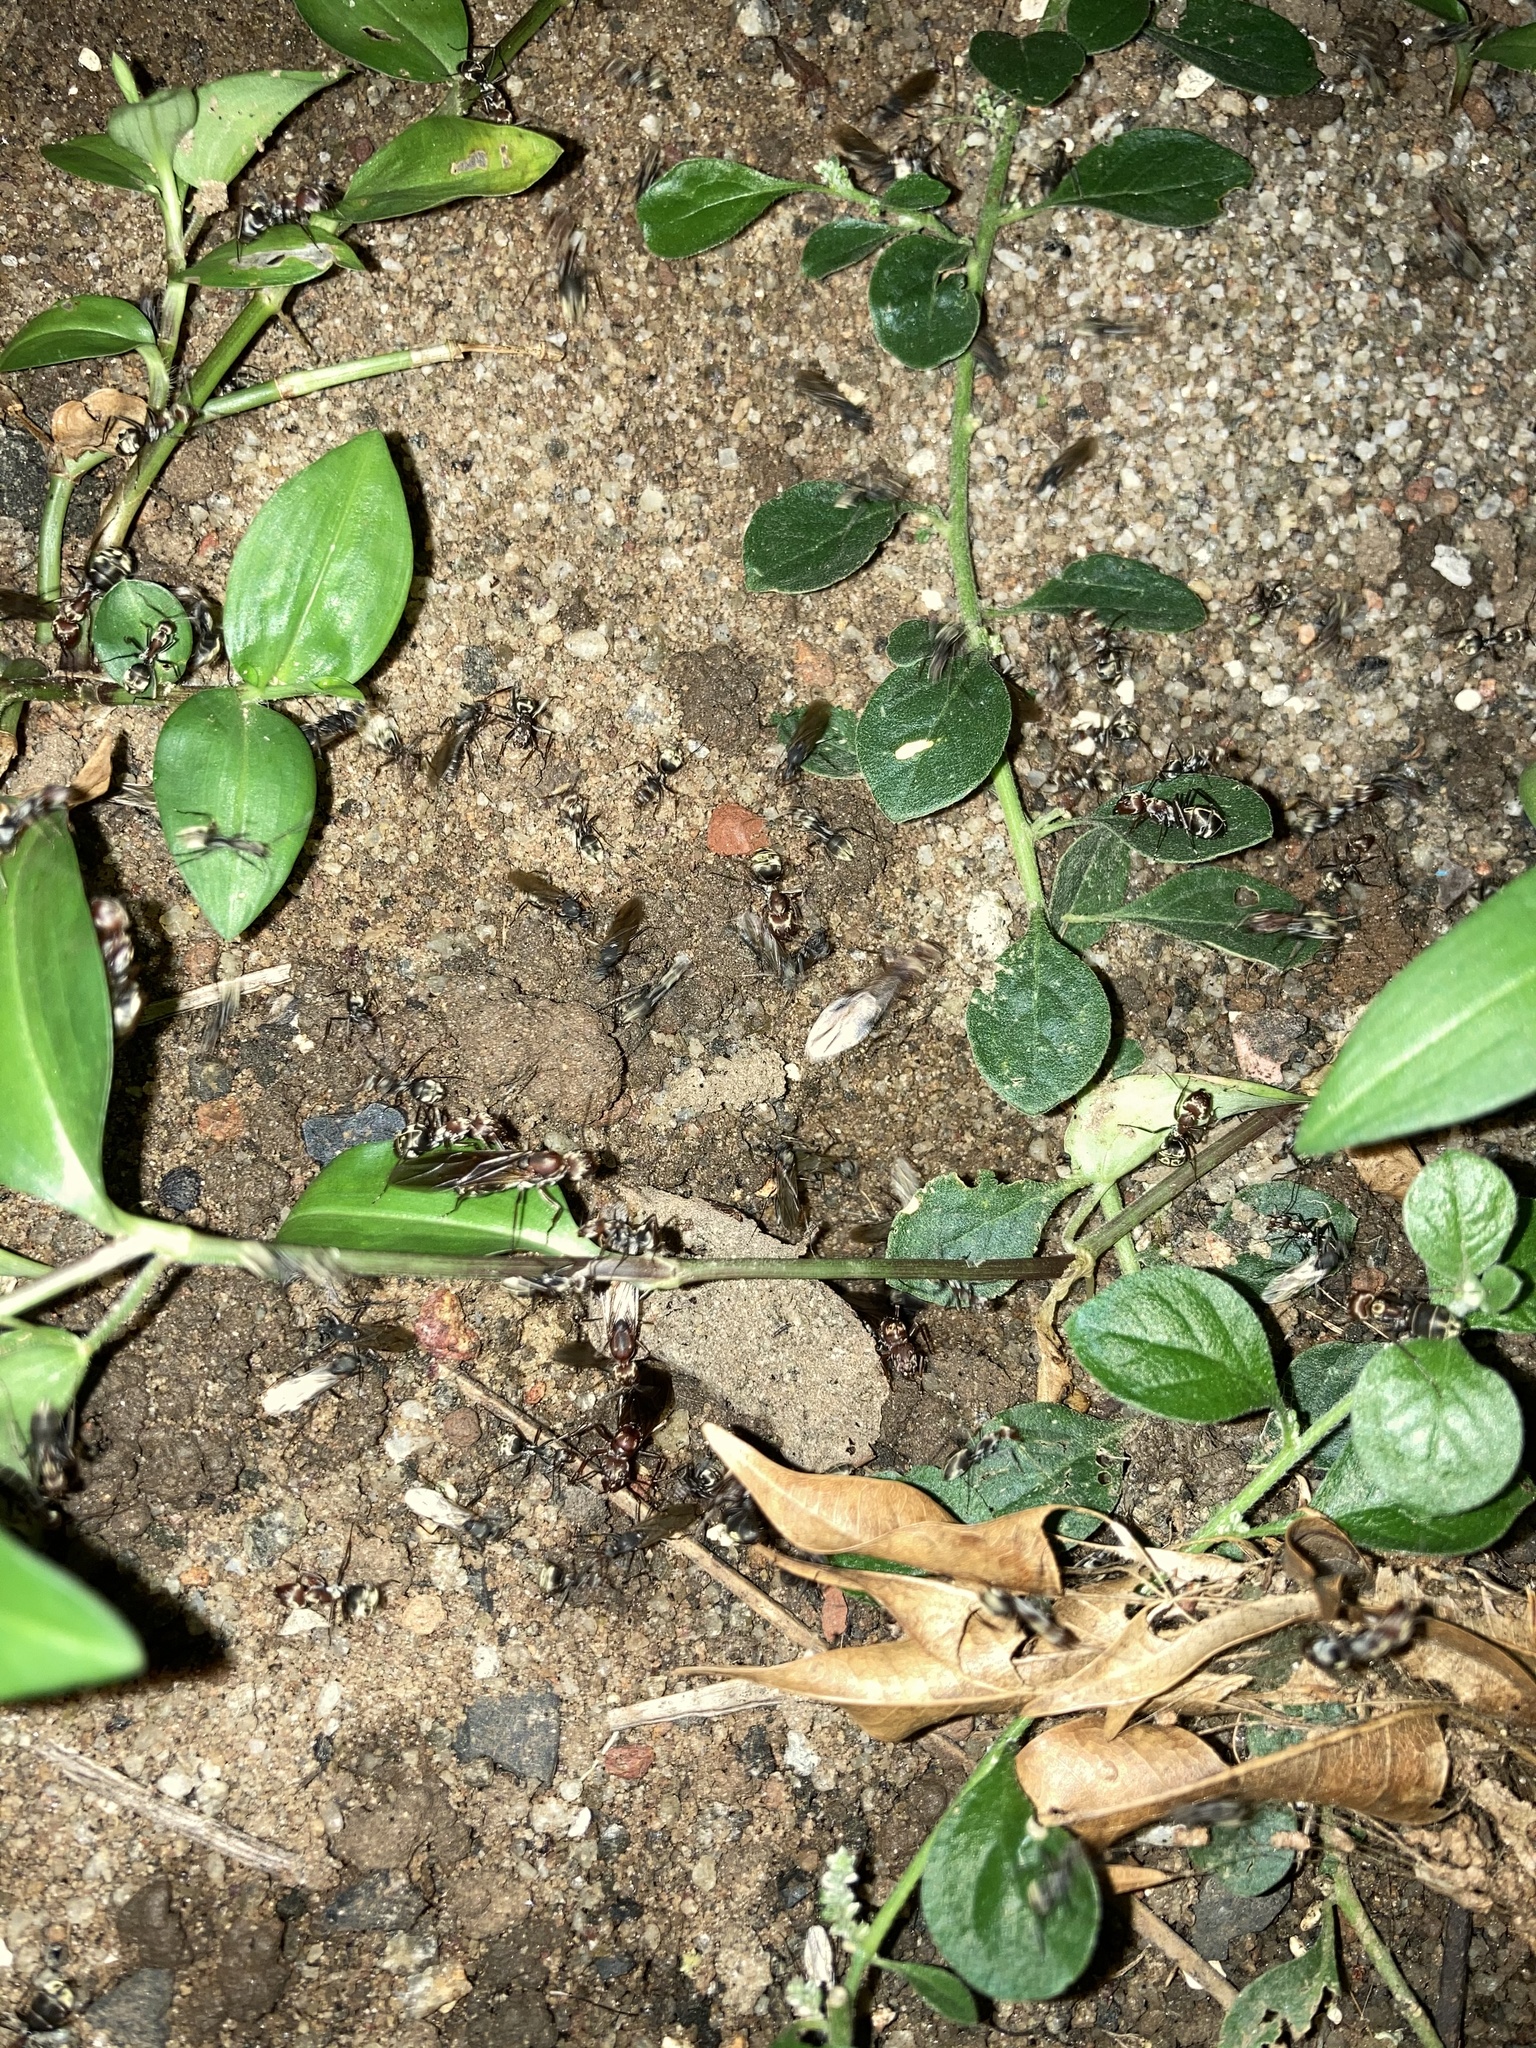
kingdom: Animalia
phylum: Arthropoda
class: Insecta
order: Hymenoptera
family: Formicidae
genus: Camponotus
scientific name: Camponotus rufoglaucus
